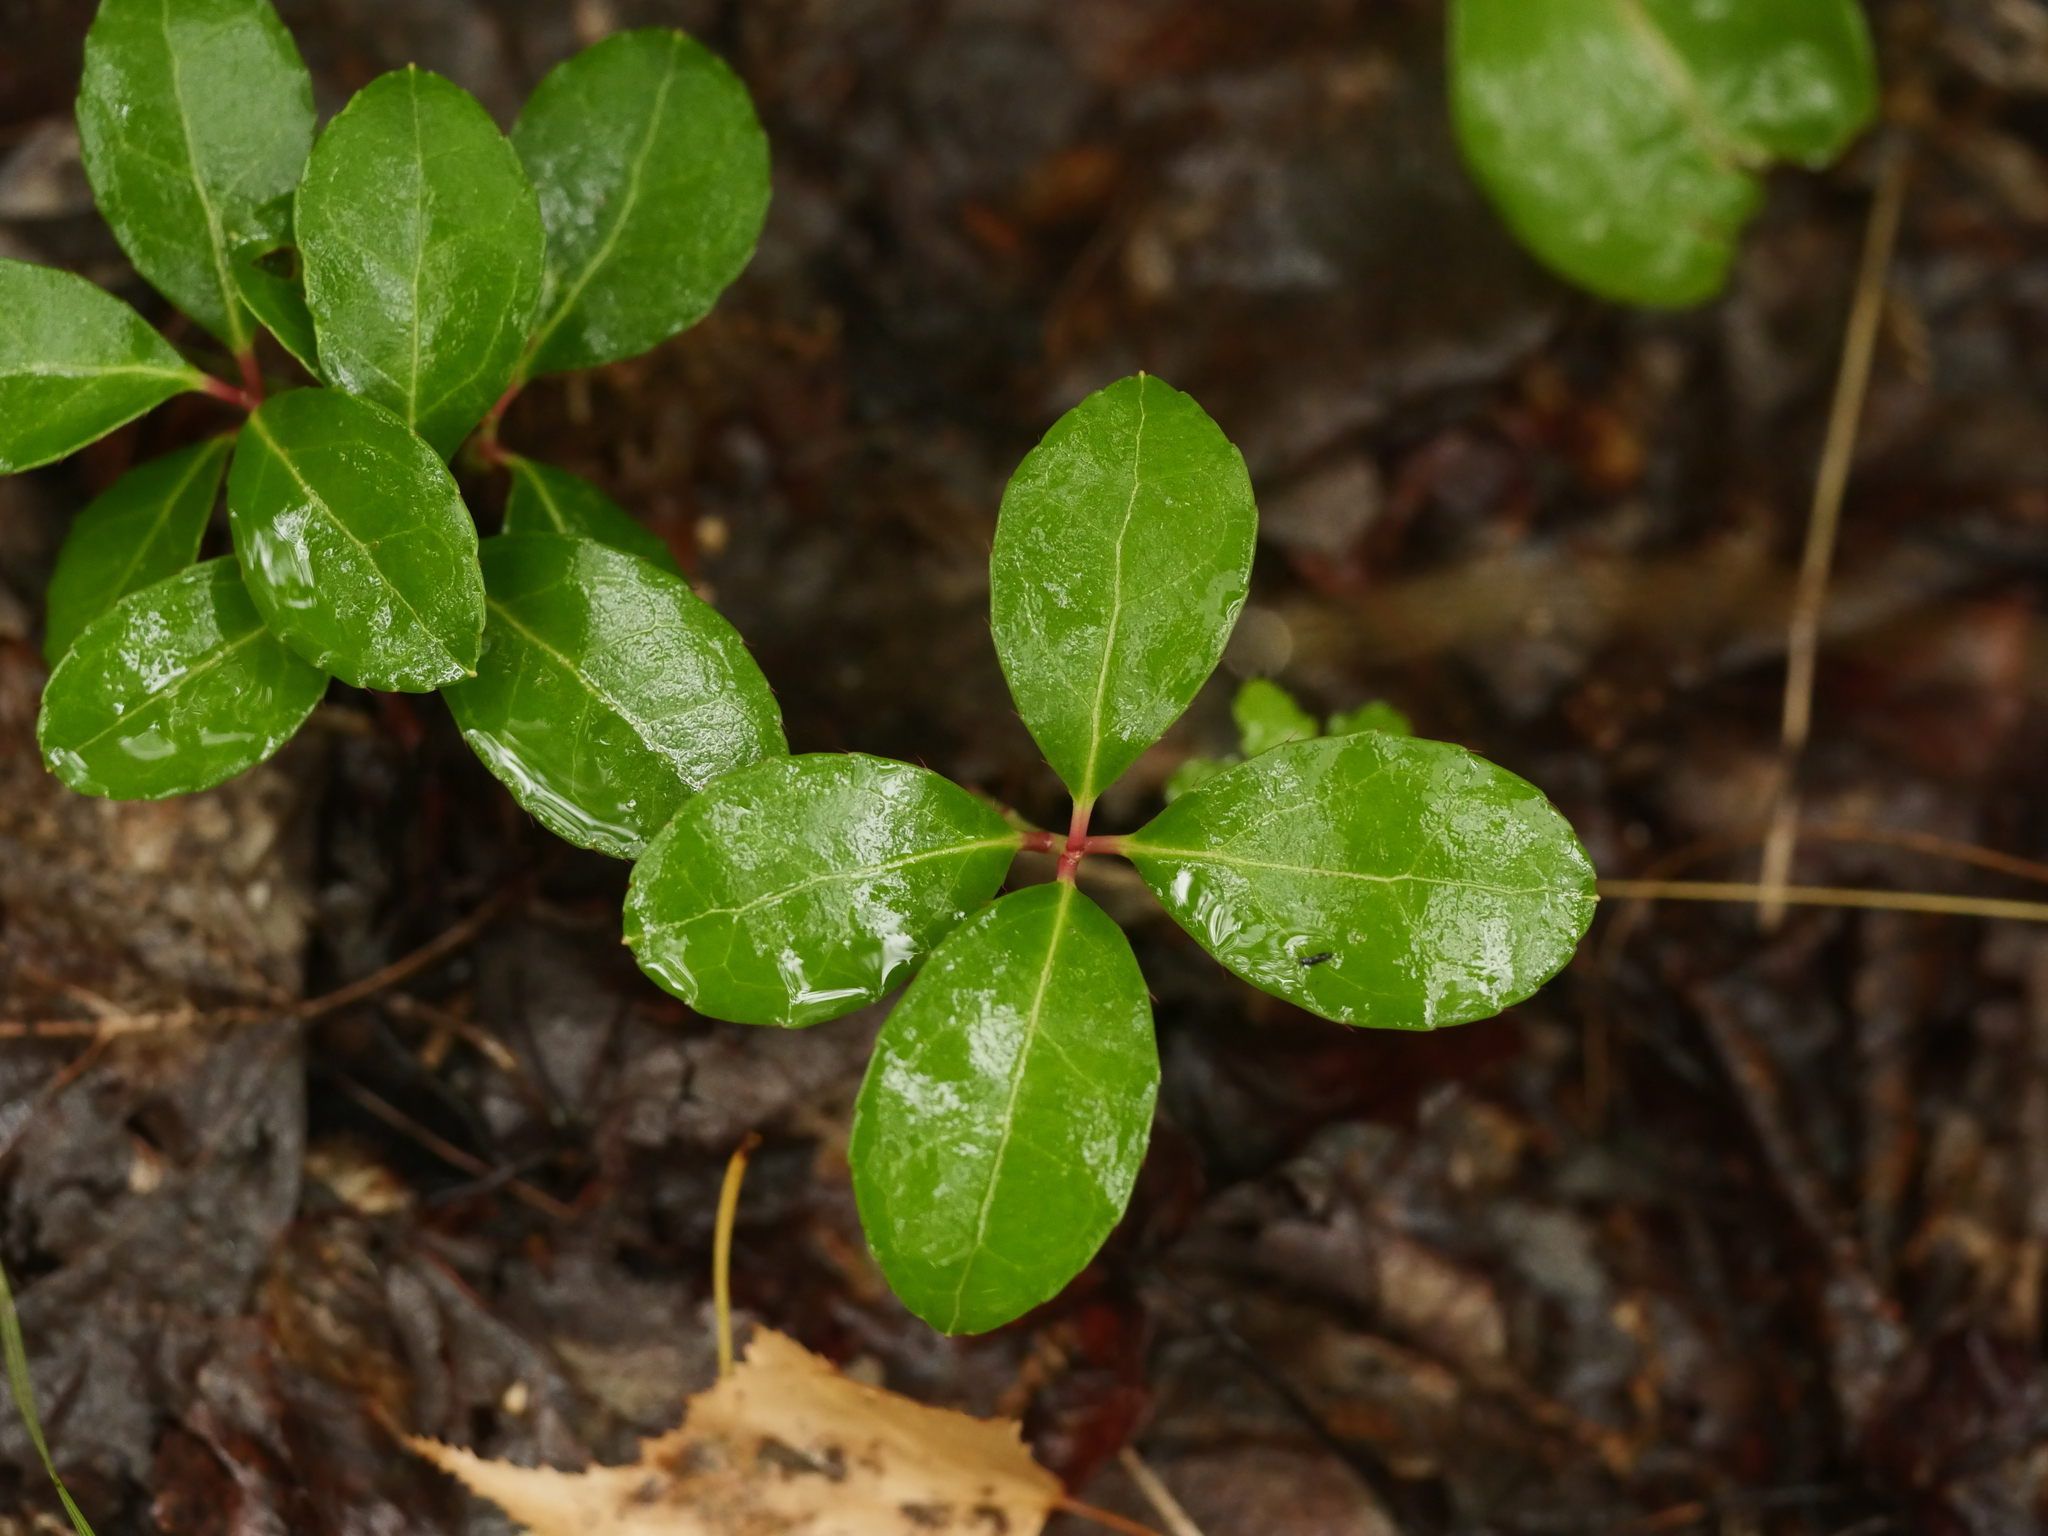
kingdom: Plantae
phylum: Tracheophyta
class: Magnoliopsida
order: Ericales
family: Ericaceae
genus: Gaultheria
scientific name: Gaultheria procumbens
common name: Checkerberry
